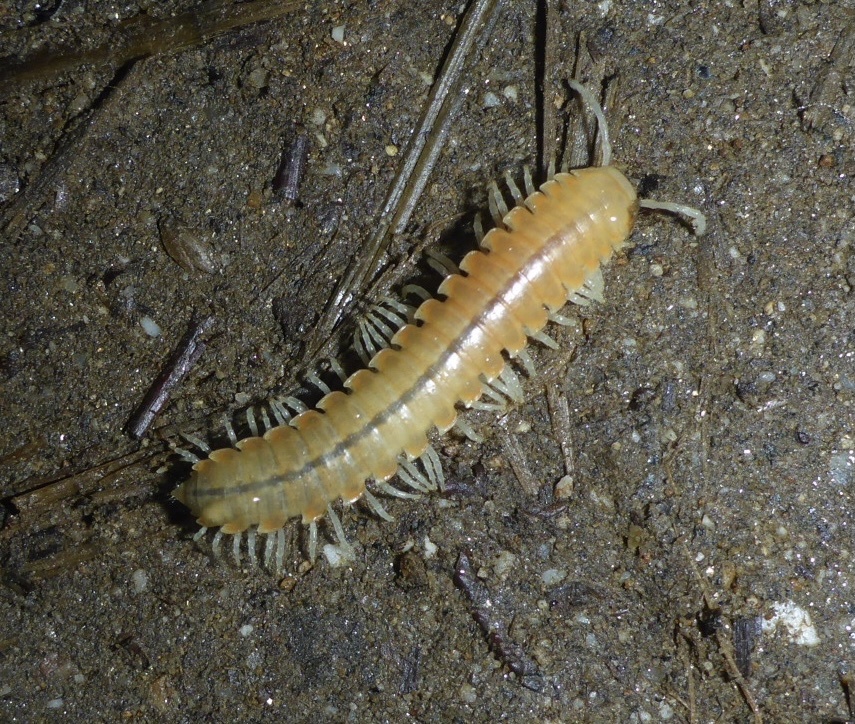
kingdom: Animalia
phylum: Arthropoda
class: Diplopoda
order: Polydesmida
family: Xystodesmidae
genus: Xystocheir
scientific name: Xystocheir dissecta
